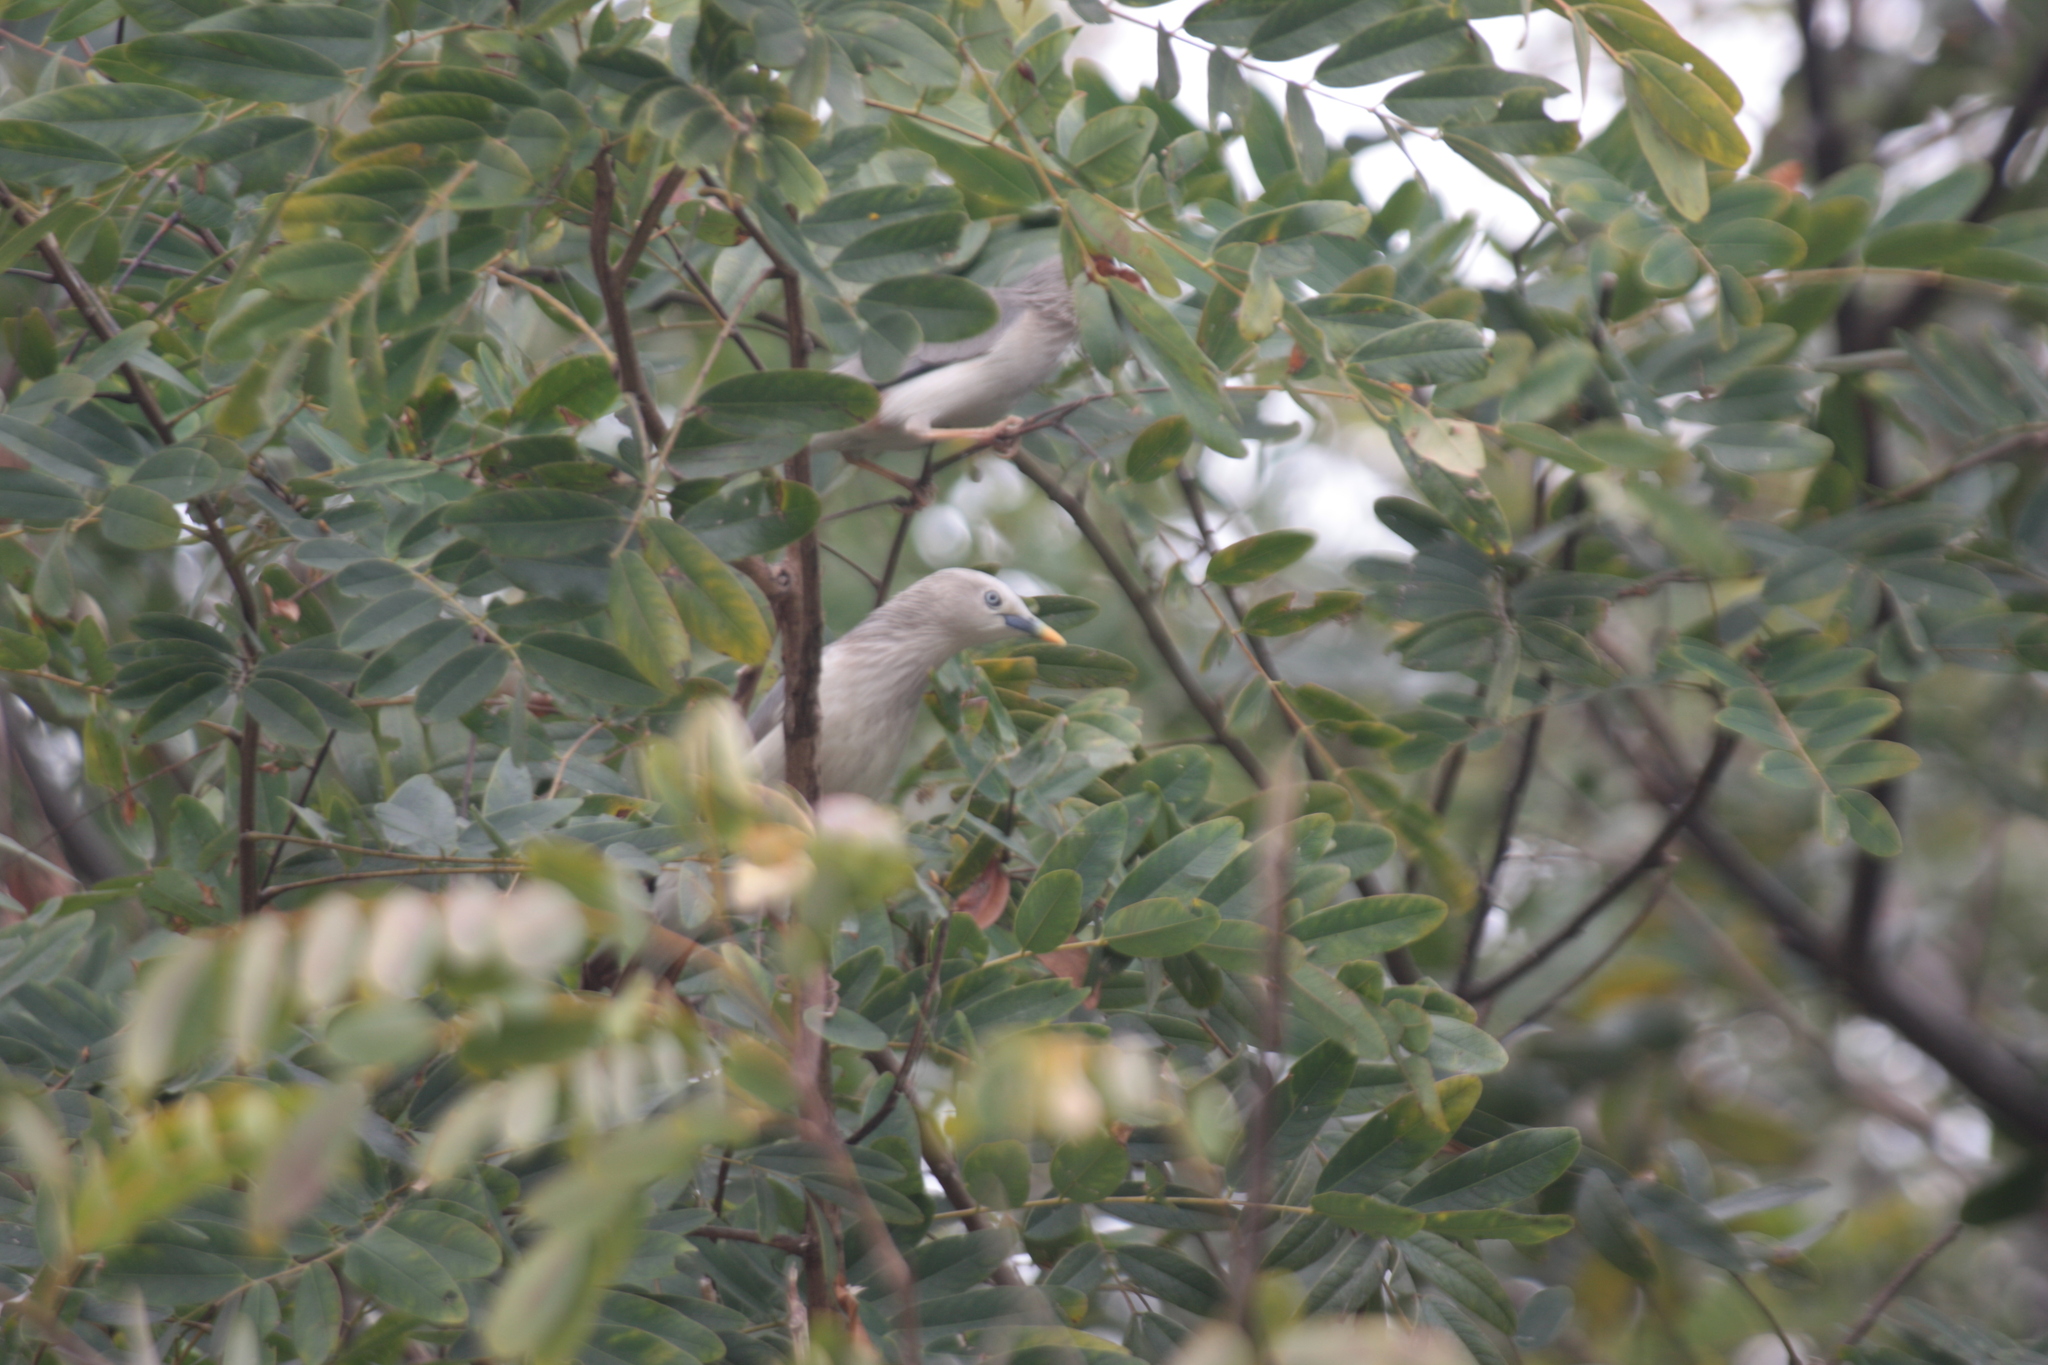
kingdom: Animalia
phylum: Chordata
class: Aves
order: Passeriformes
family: Sturnidae
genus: Sturnia
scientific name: Sturnia malabarica
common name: Chestnut-tailed starling
